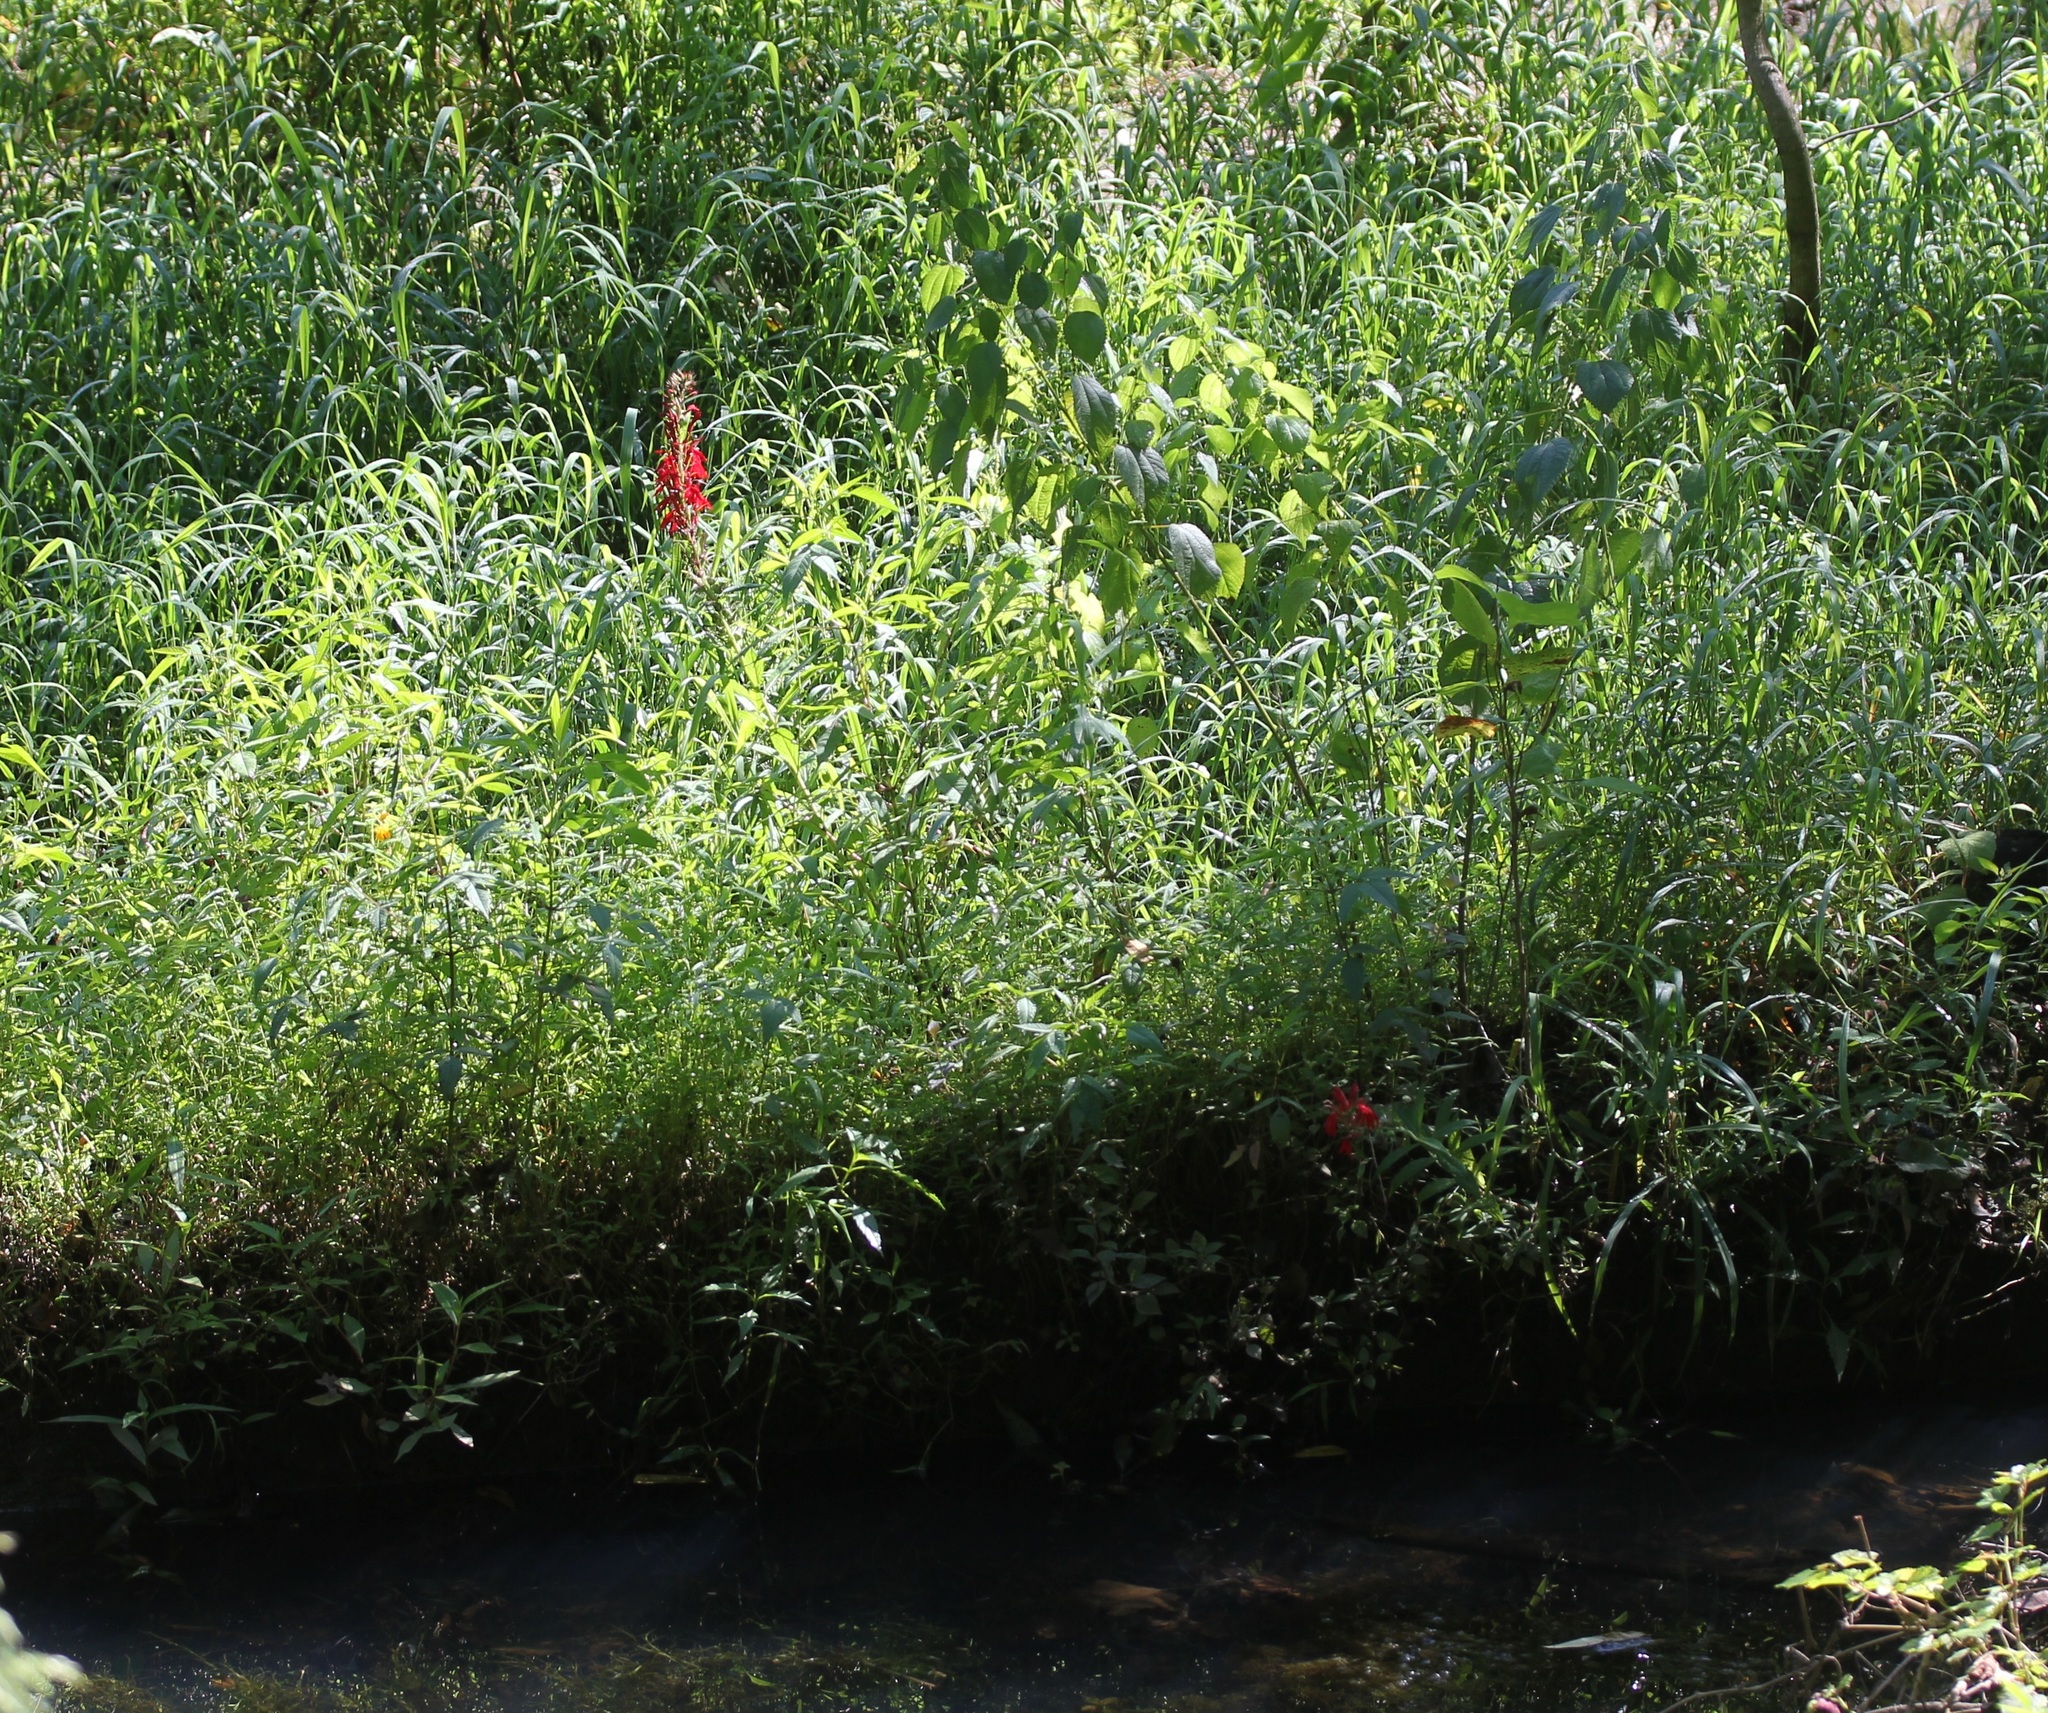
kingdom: Plantae
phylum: Tracheophyta
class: Magnoliopsida
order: Asterales
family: Campanulaceae
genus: Lobelia
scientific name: Lobelia cardinalis
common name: Cardinal flower
